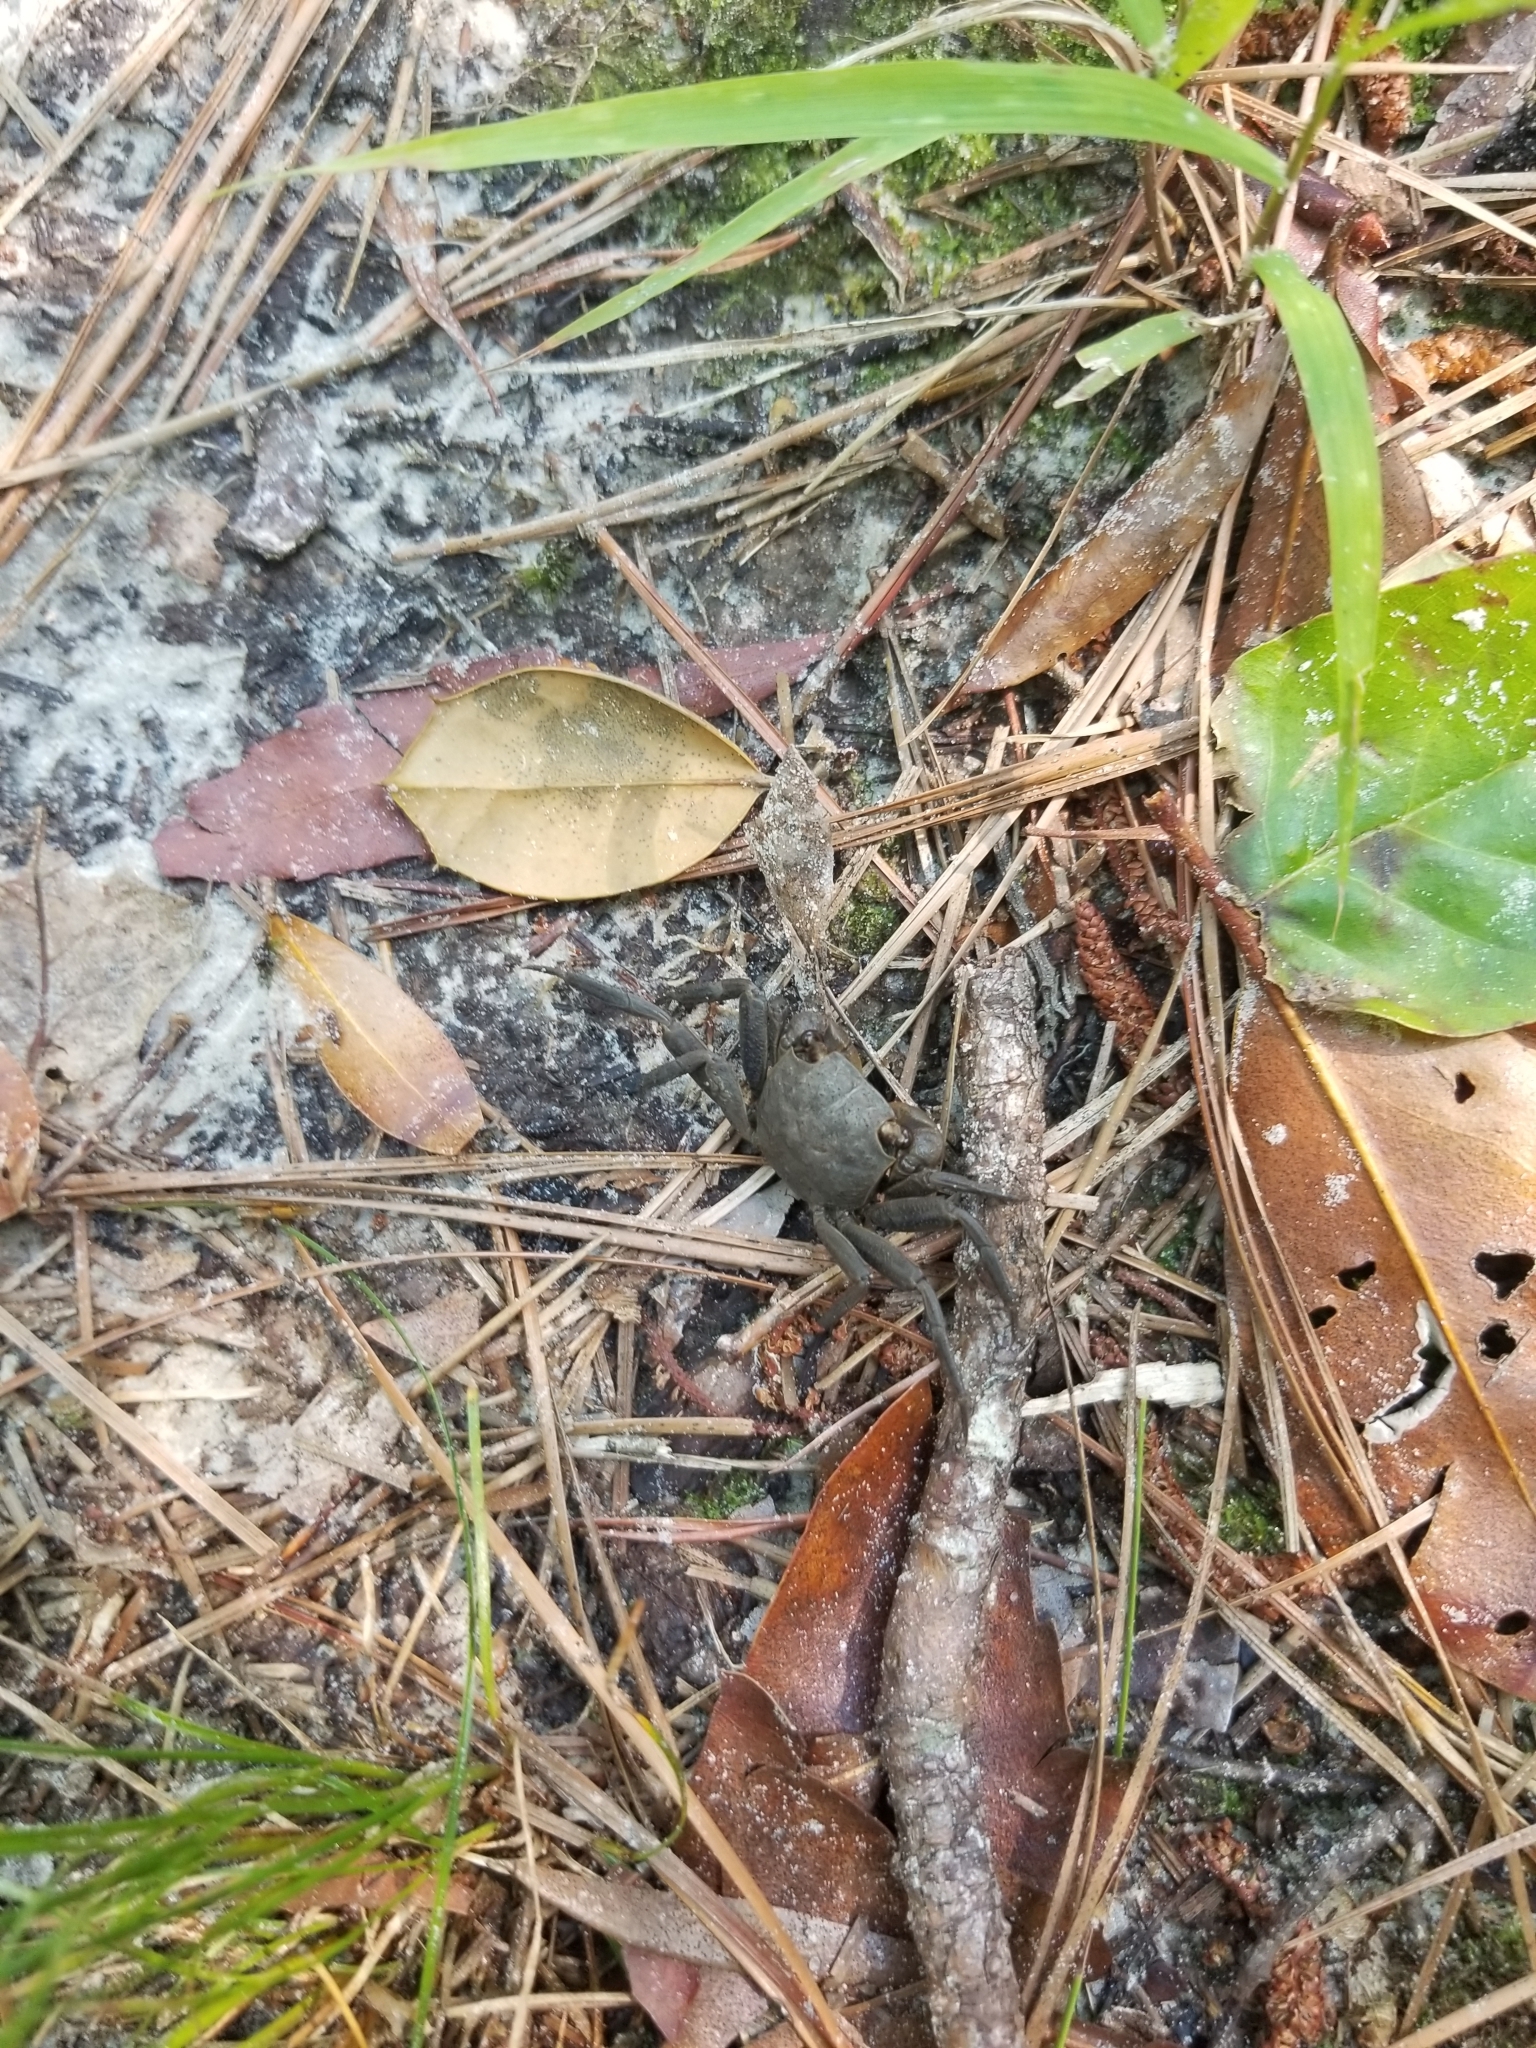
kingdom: Animalia
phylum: Arthropoda
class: Malacostraca
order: Decapoda
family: Sesarmidae
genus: Armases
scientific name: Armases cinereum
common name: Squareback marsh crab
